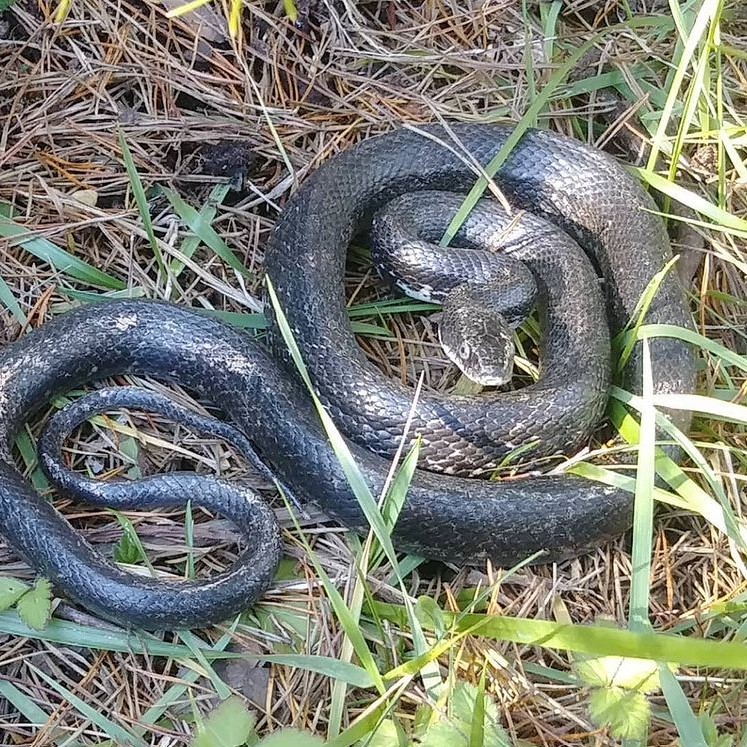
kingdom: Animalia
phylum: Chordata
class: Squamata
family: Colubridae
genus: Pantherophis
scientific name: Pantherophis alleghaniensis
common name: Eastern rat snake
